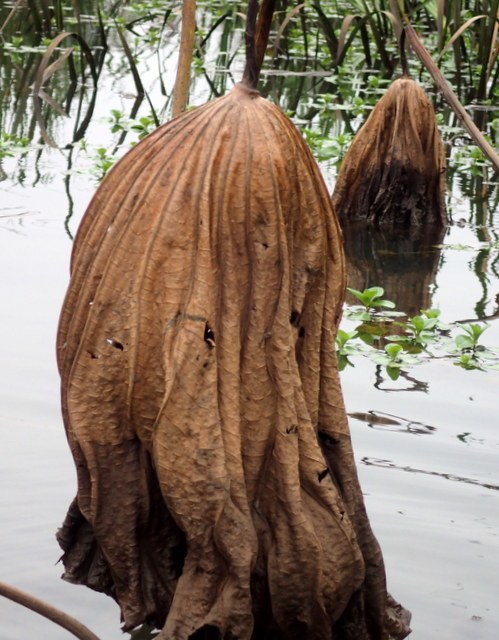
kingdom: Plantae
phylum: Tracheophyta
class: Magnoliopsida
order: Proteales
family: Nelumbonaceae
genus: Nelumbo
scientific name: Nelumbo lutea
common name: American lotus
